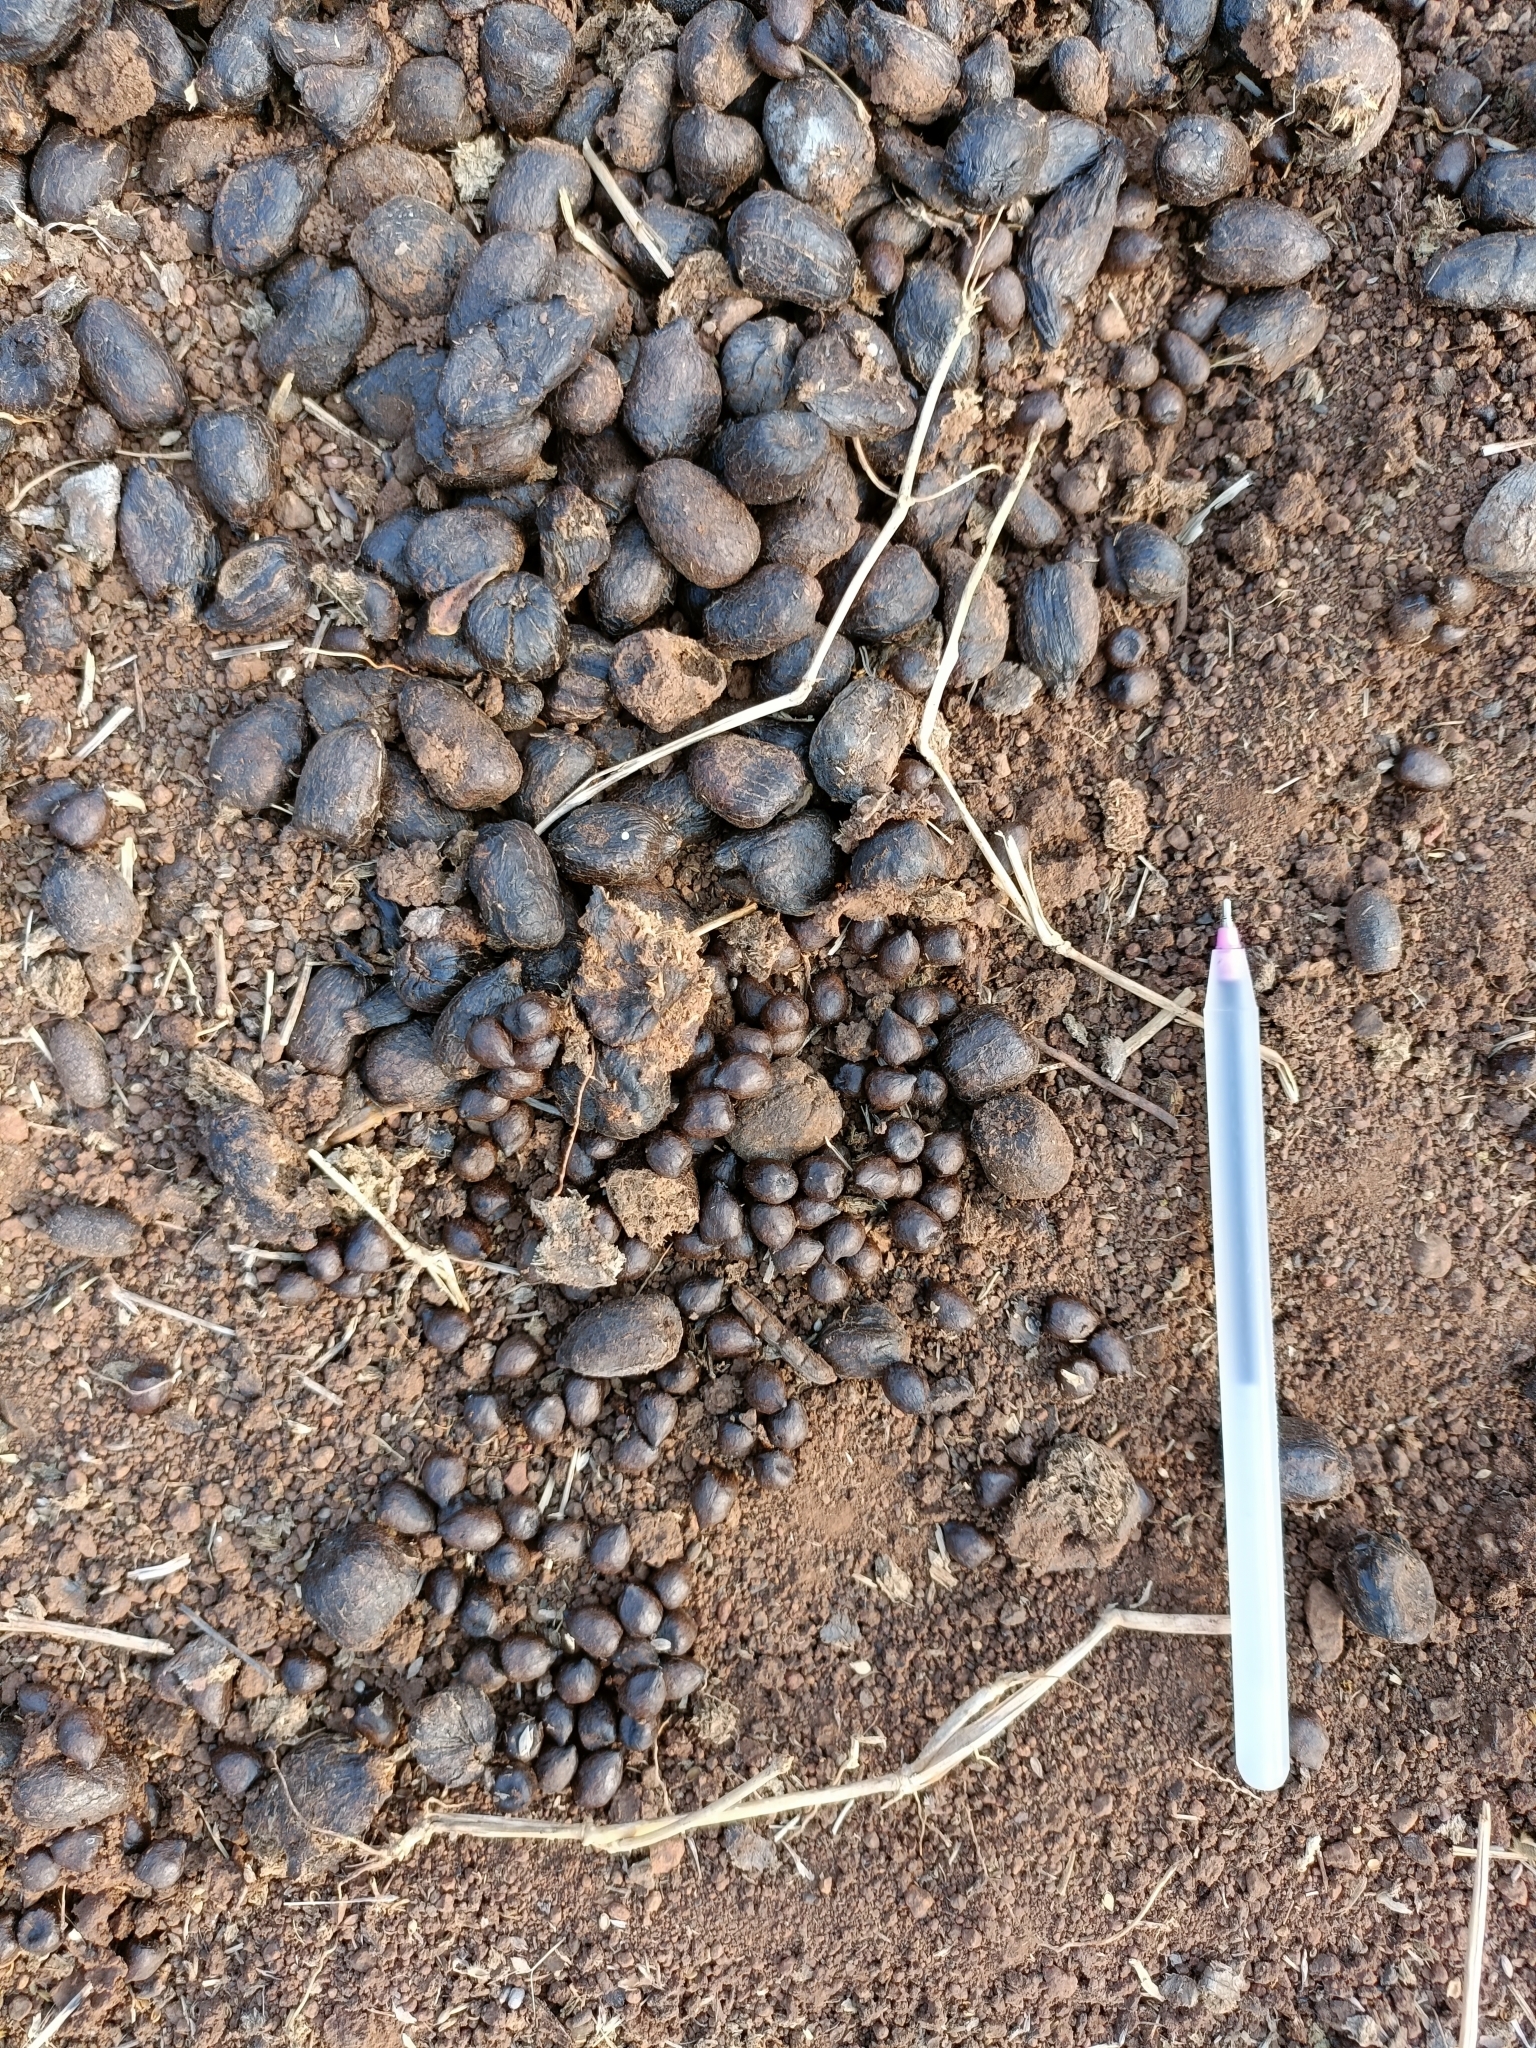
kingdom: Animalia
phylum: Chordata
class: Mammalia
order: Artiodactyla
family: Bovidae
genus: Gazella
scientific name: Gazella bennettii
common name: Indian gazelle
